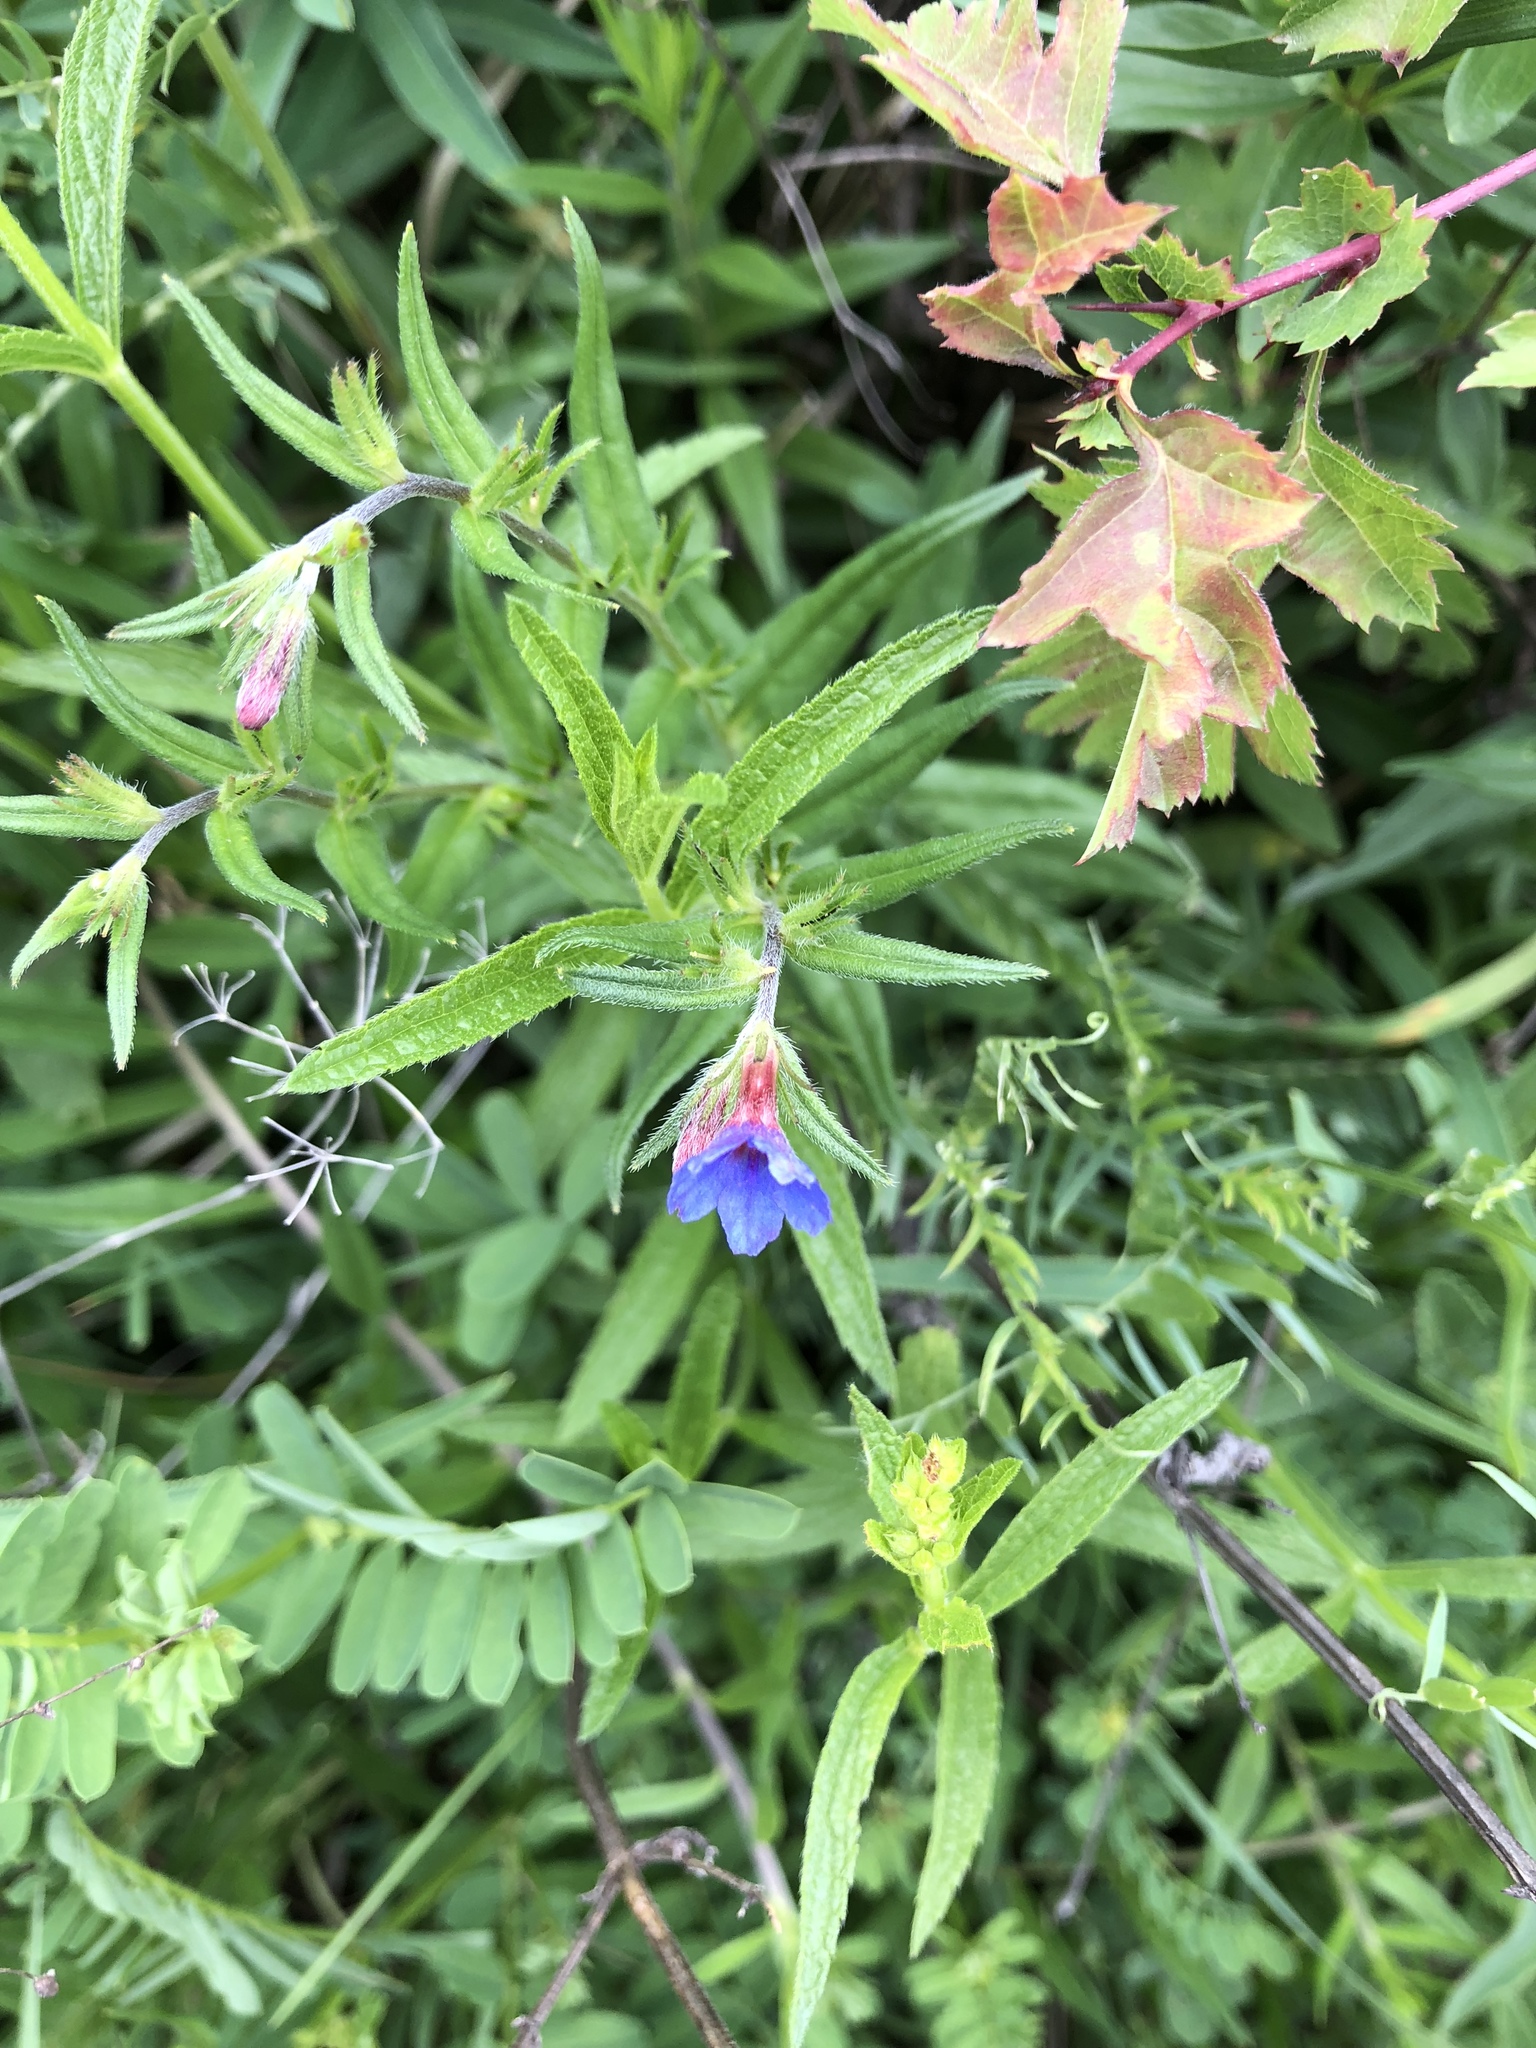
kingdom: Plantae
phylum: Tracheophyta
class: Magnoliopsida
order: Boraginales
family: Boraginaceae
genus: Aegonychon
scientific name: Aegonychon purpurocaeruleum
